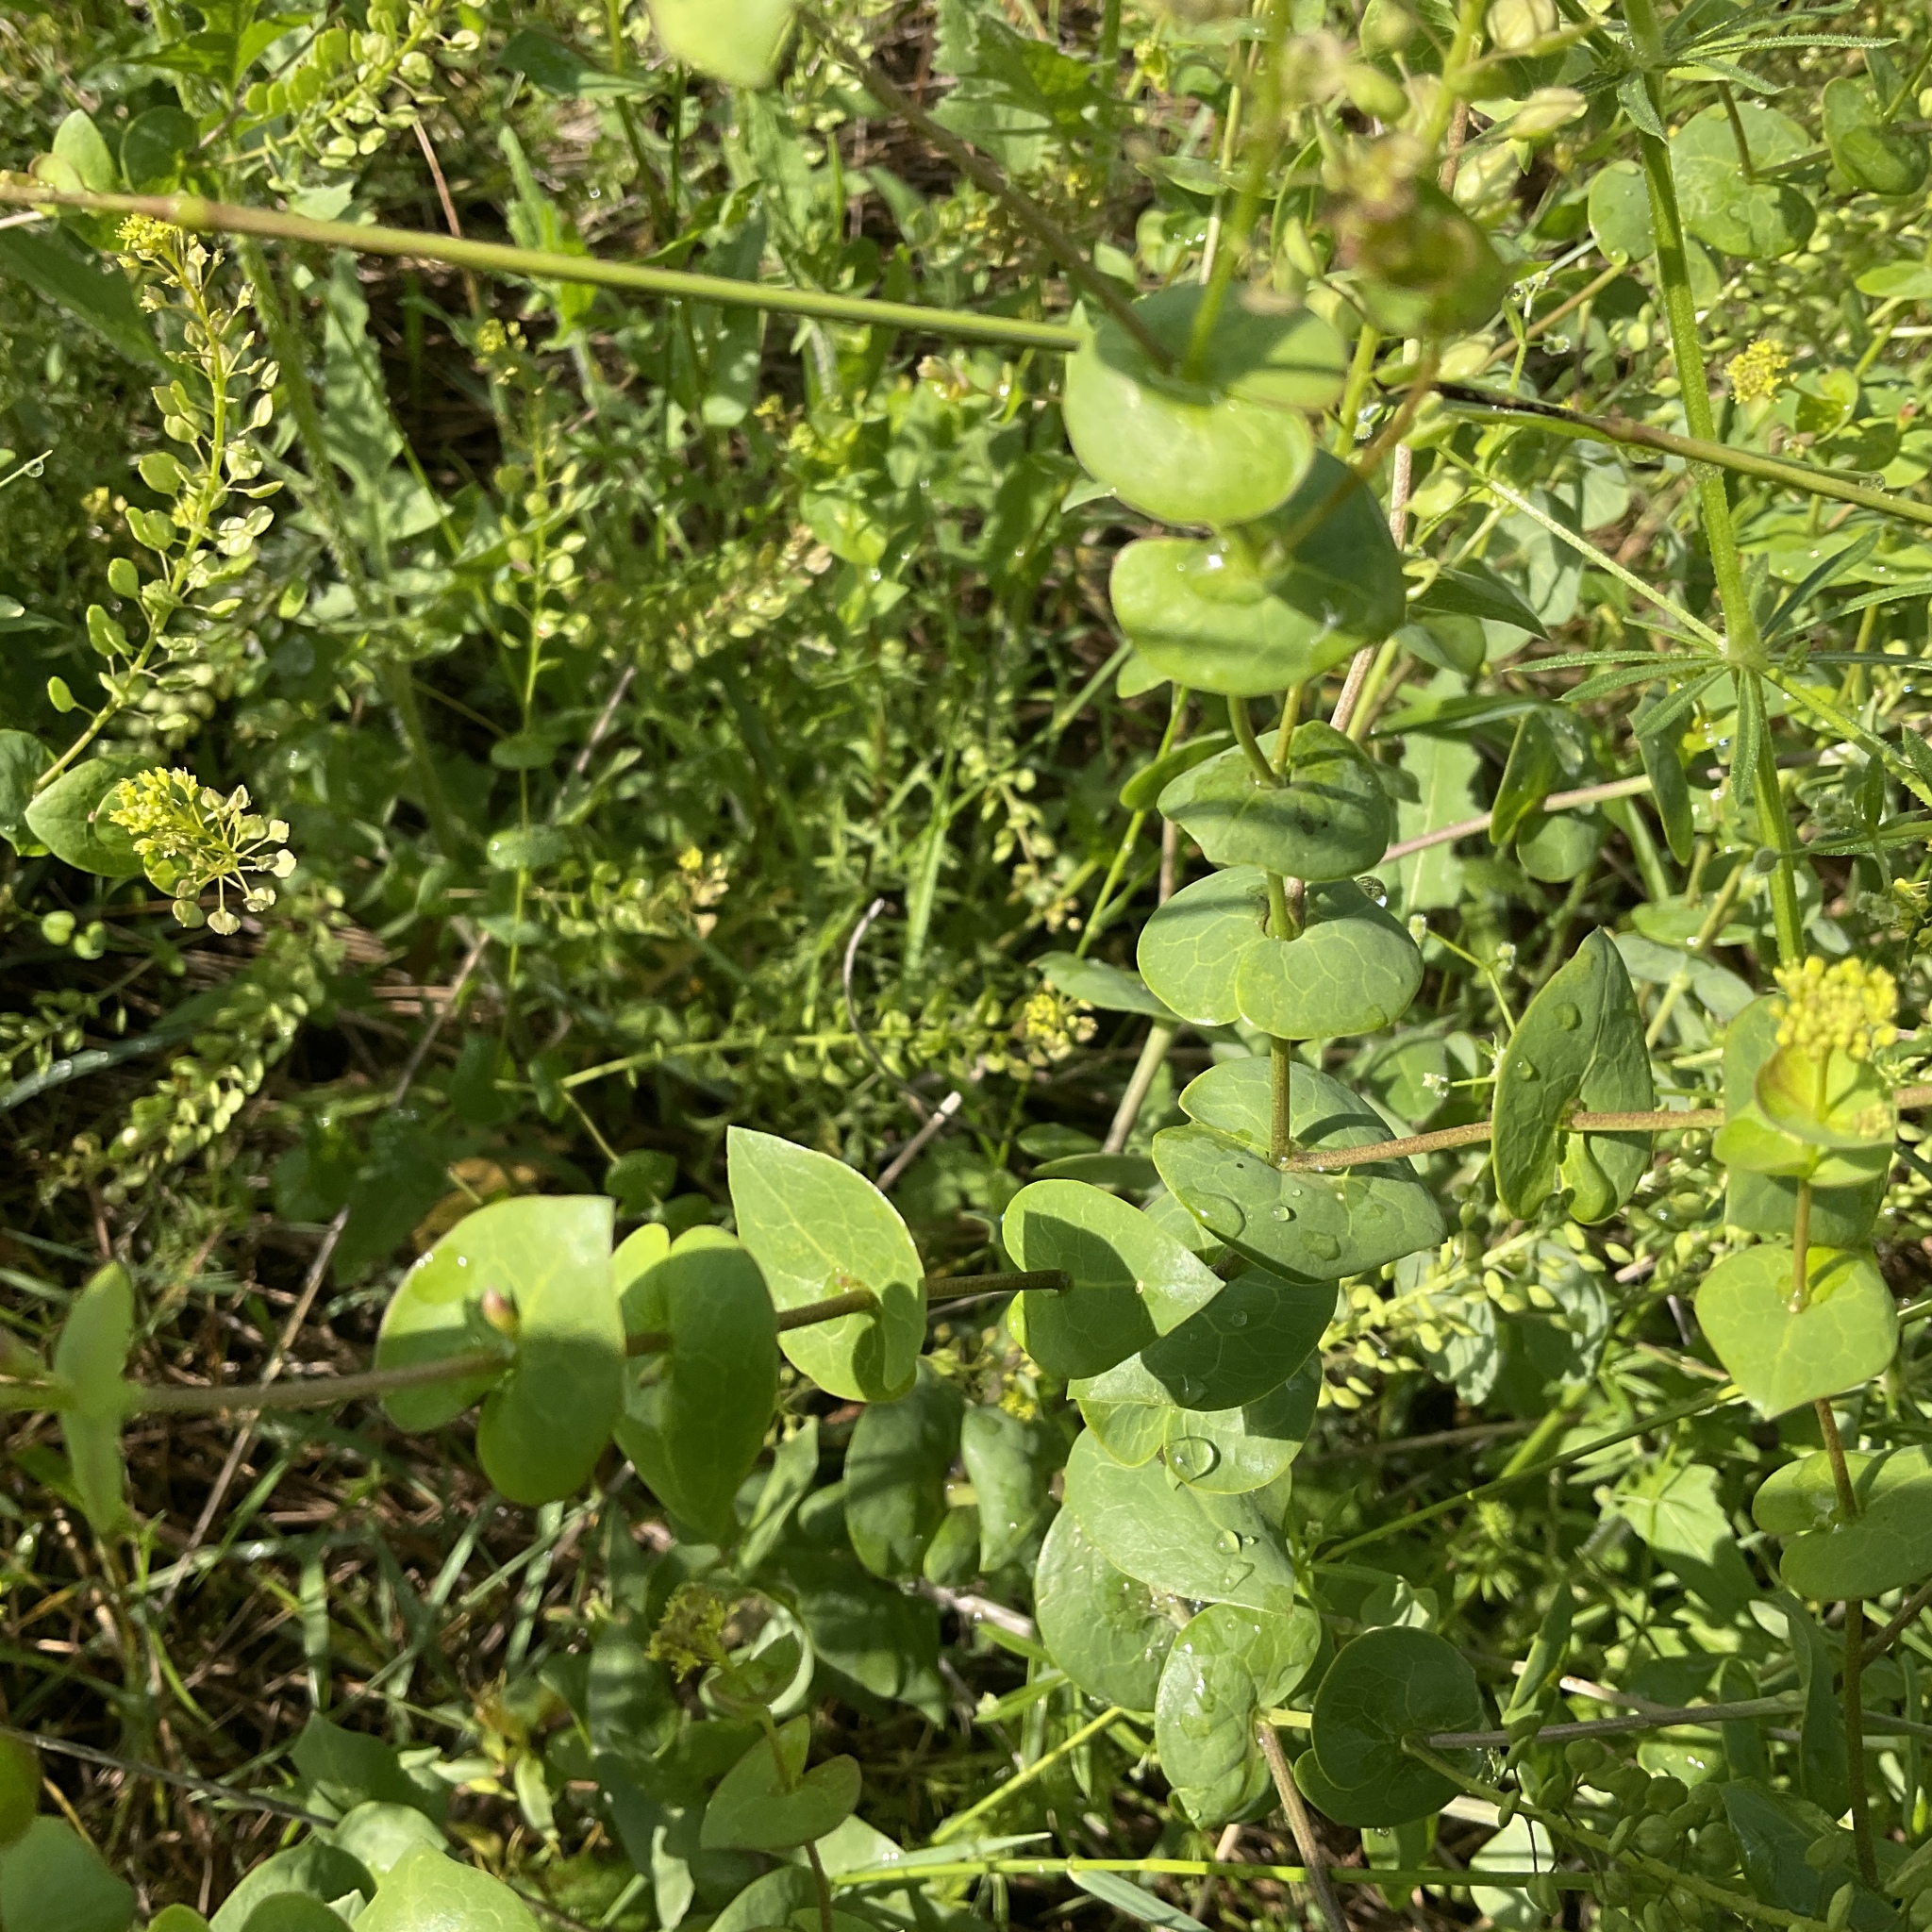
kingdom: Plantae
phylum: Tracheophyta
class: Magnoliopsida
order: Brassicales
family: Brassicaceae
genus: Lepidium
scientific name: Lepidium perfoliatum
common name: Perfoliate pepperwort
